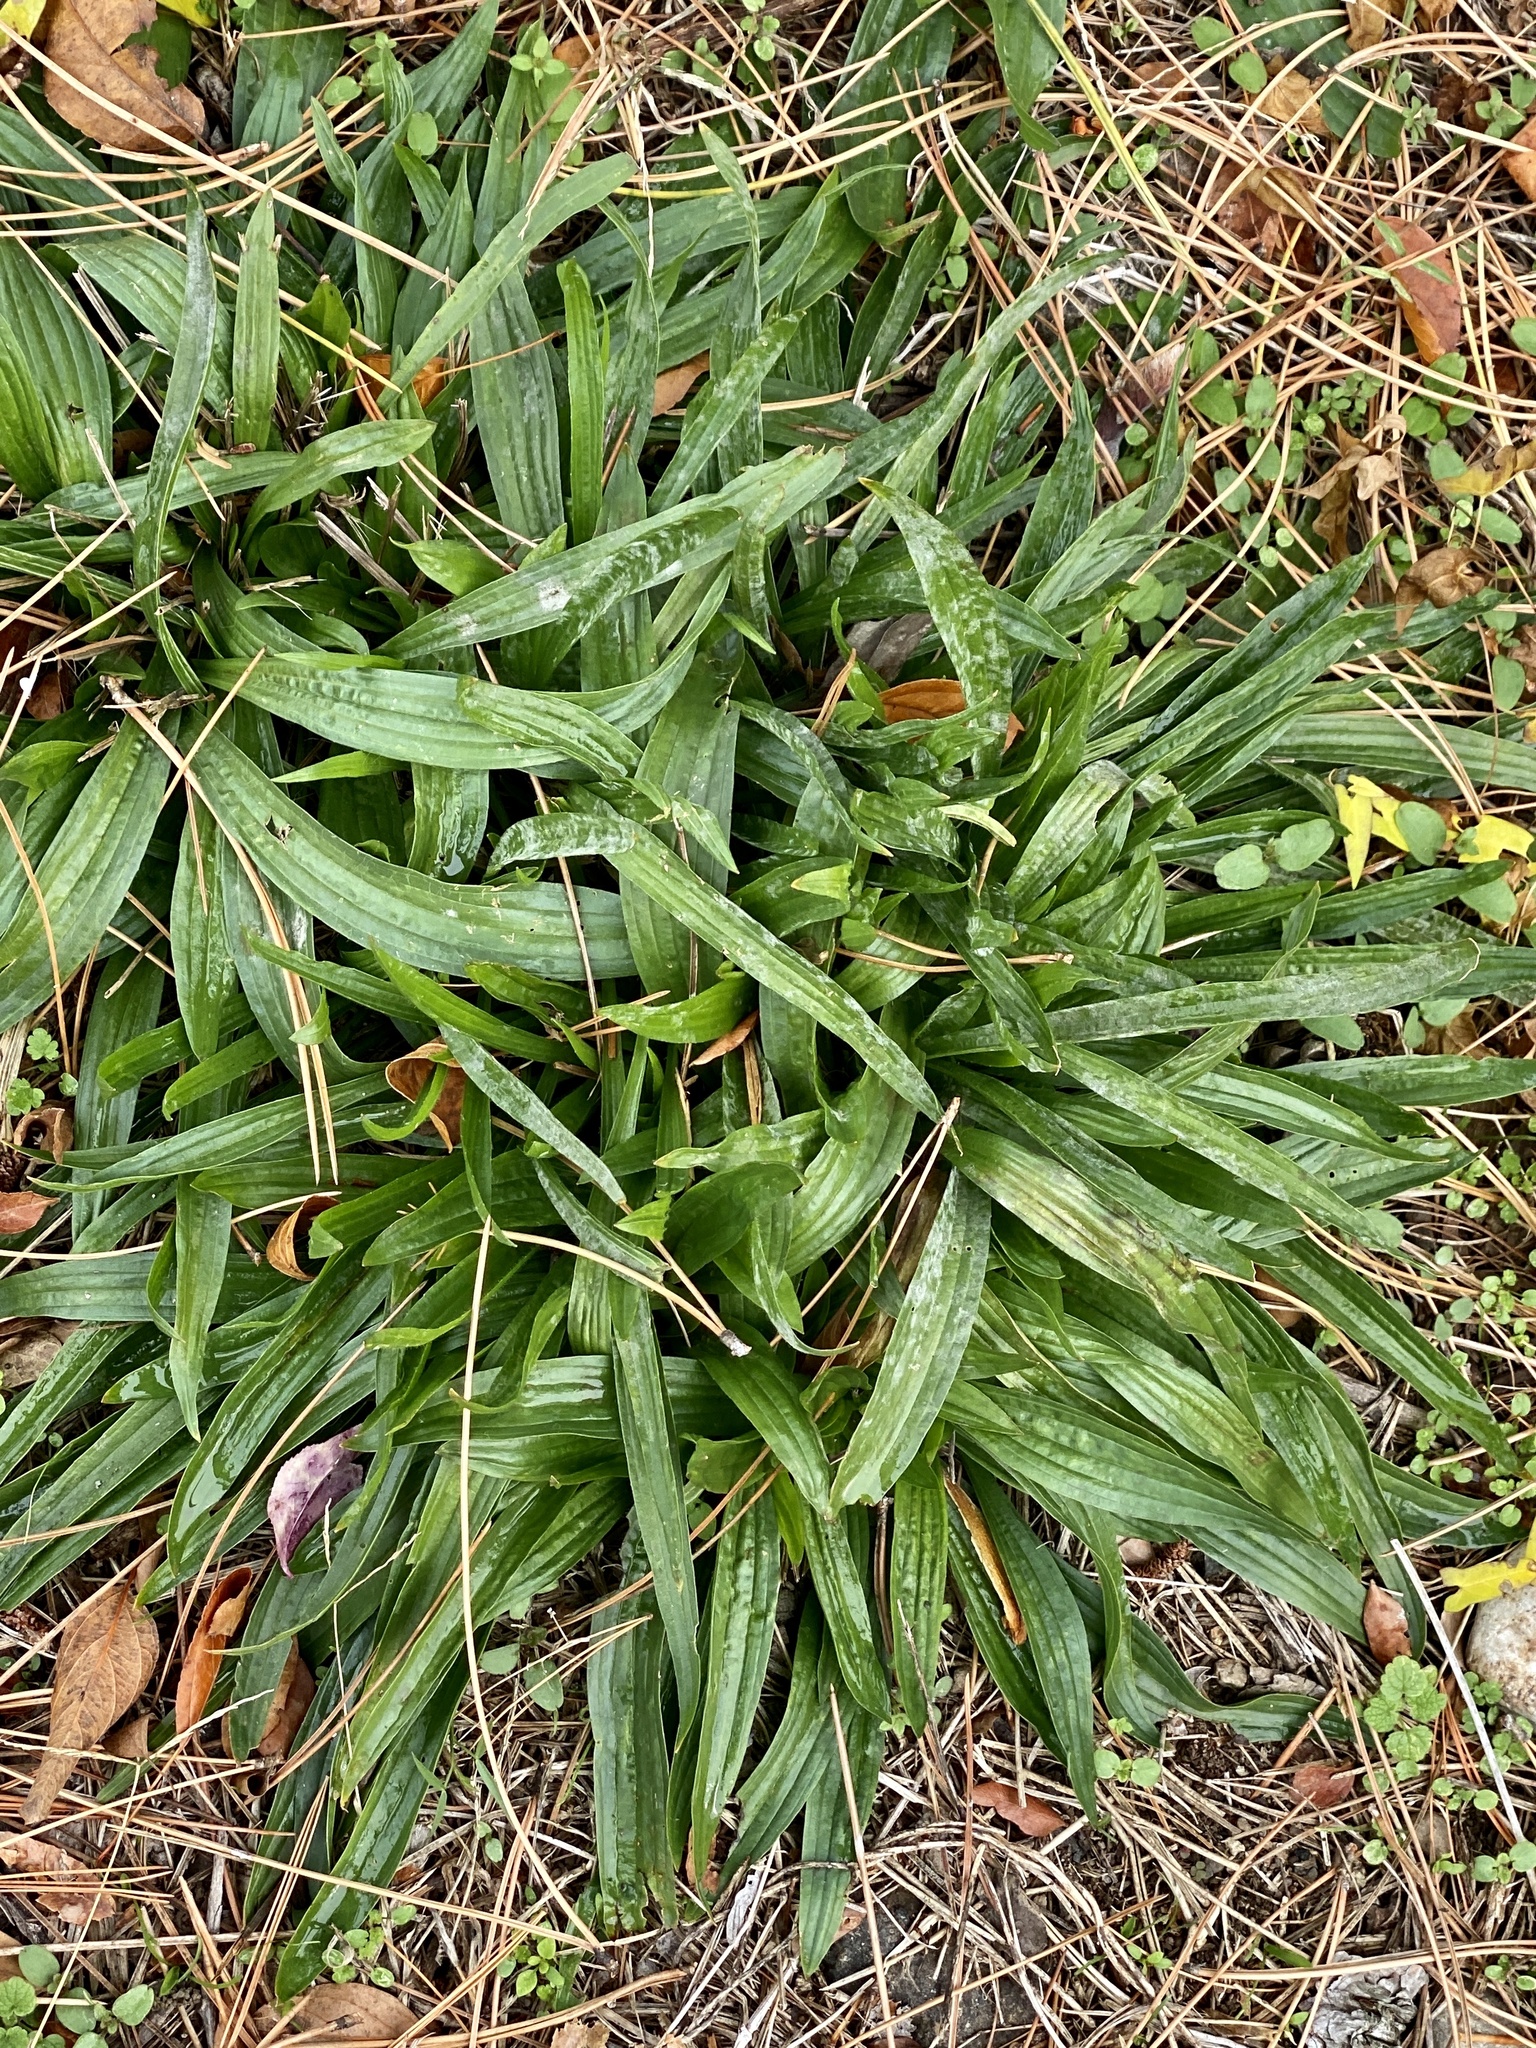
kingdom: Plantae
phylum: Tracheophyta
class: Magnoliopsida
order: Lamiales
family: Plantaginaceae
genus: Plantago
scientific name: Plantago lanceolata
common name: Ribwort plantain
